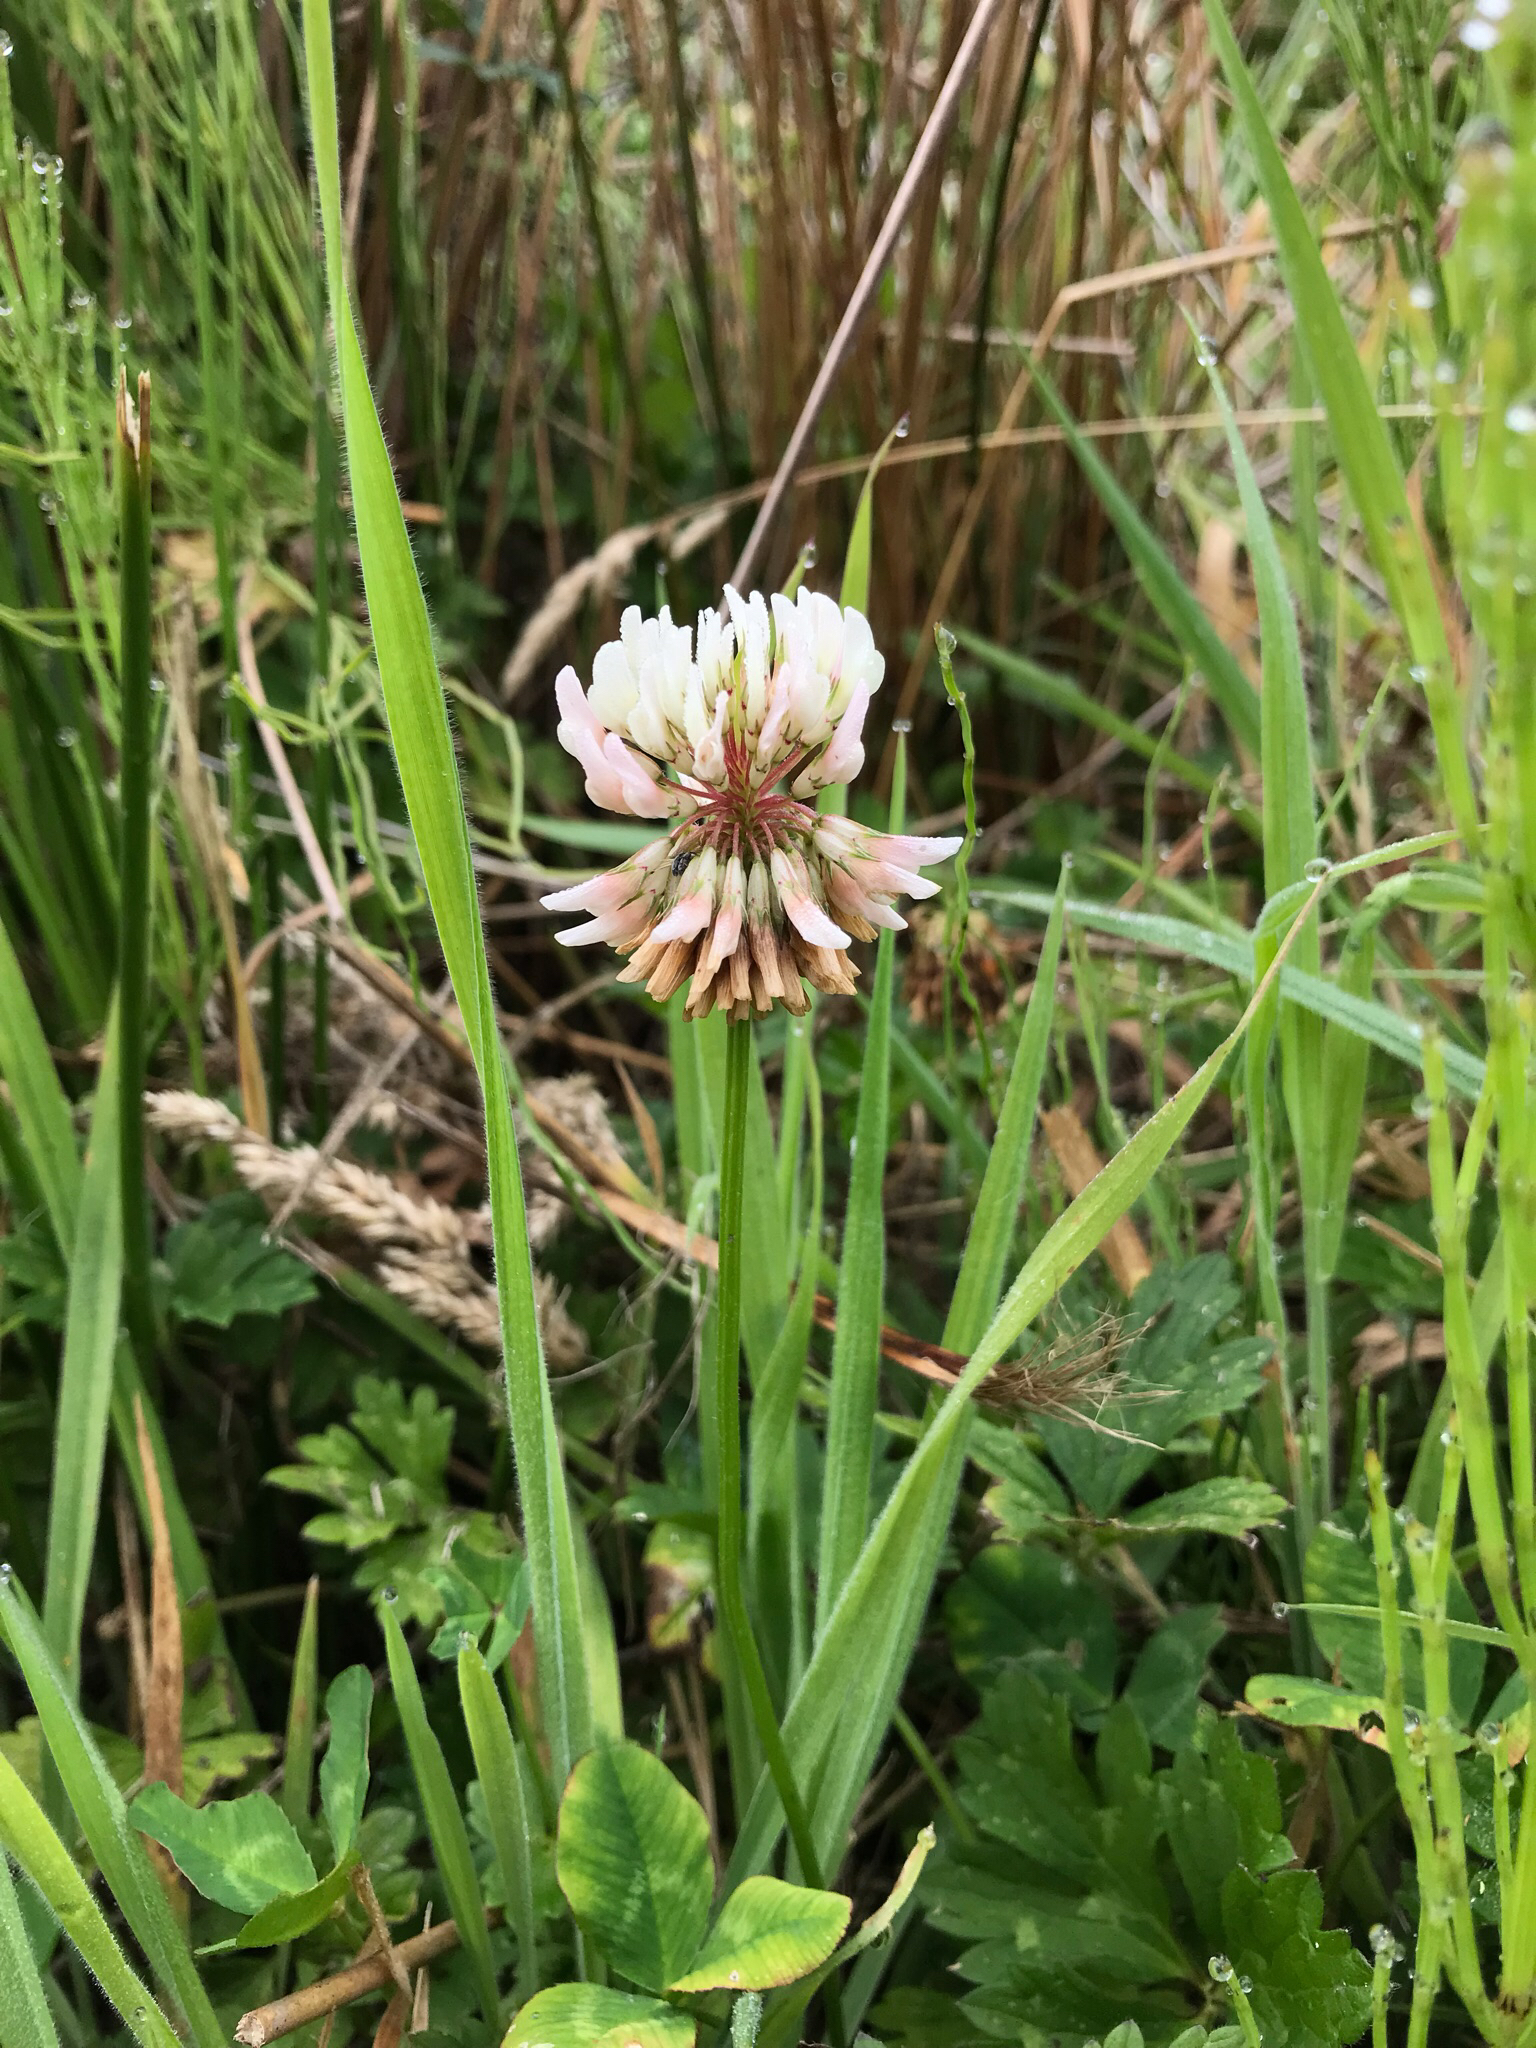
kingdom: Plantae
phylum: Tracheophyta
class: Magnoliopsida
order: Fabales
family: Fabaceae
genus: Trifolium
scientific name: Trifolium repens
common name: White clover
